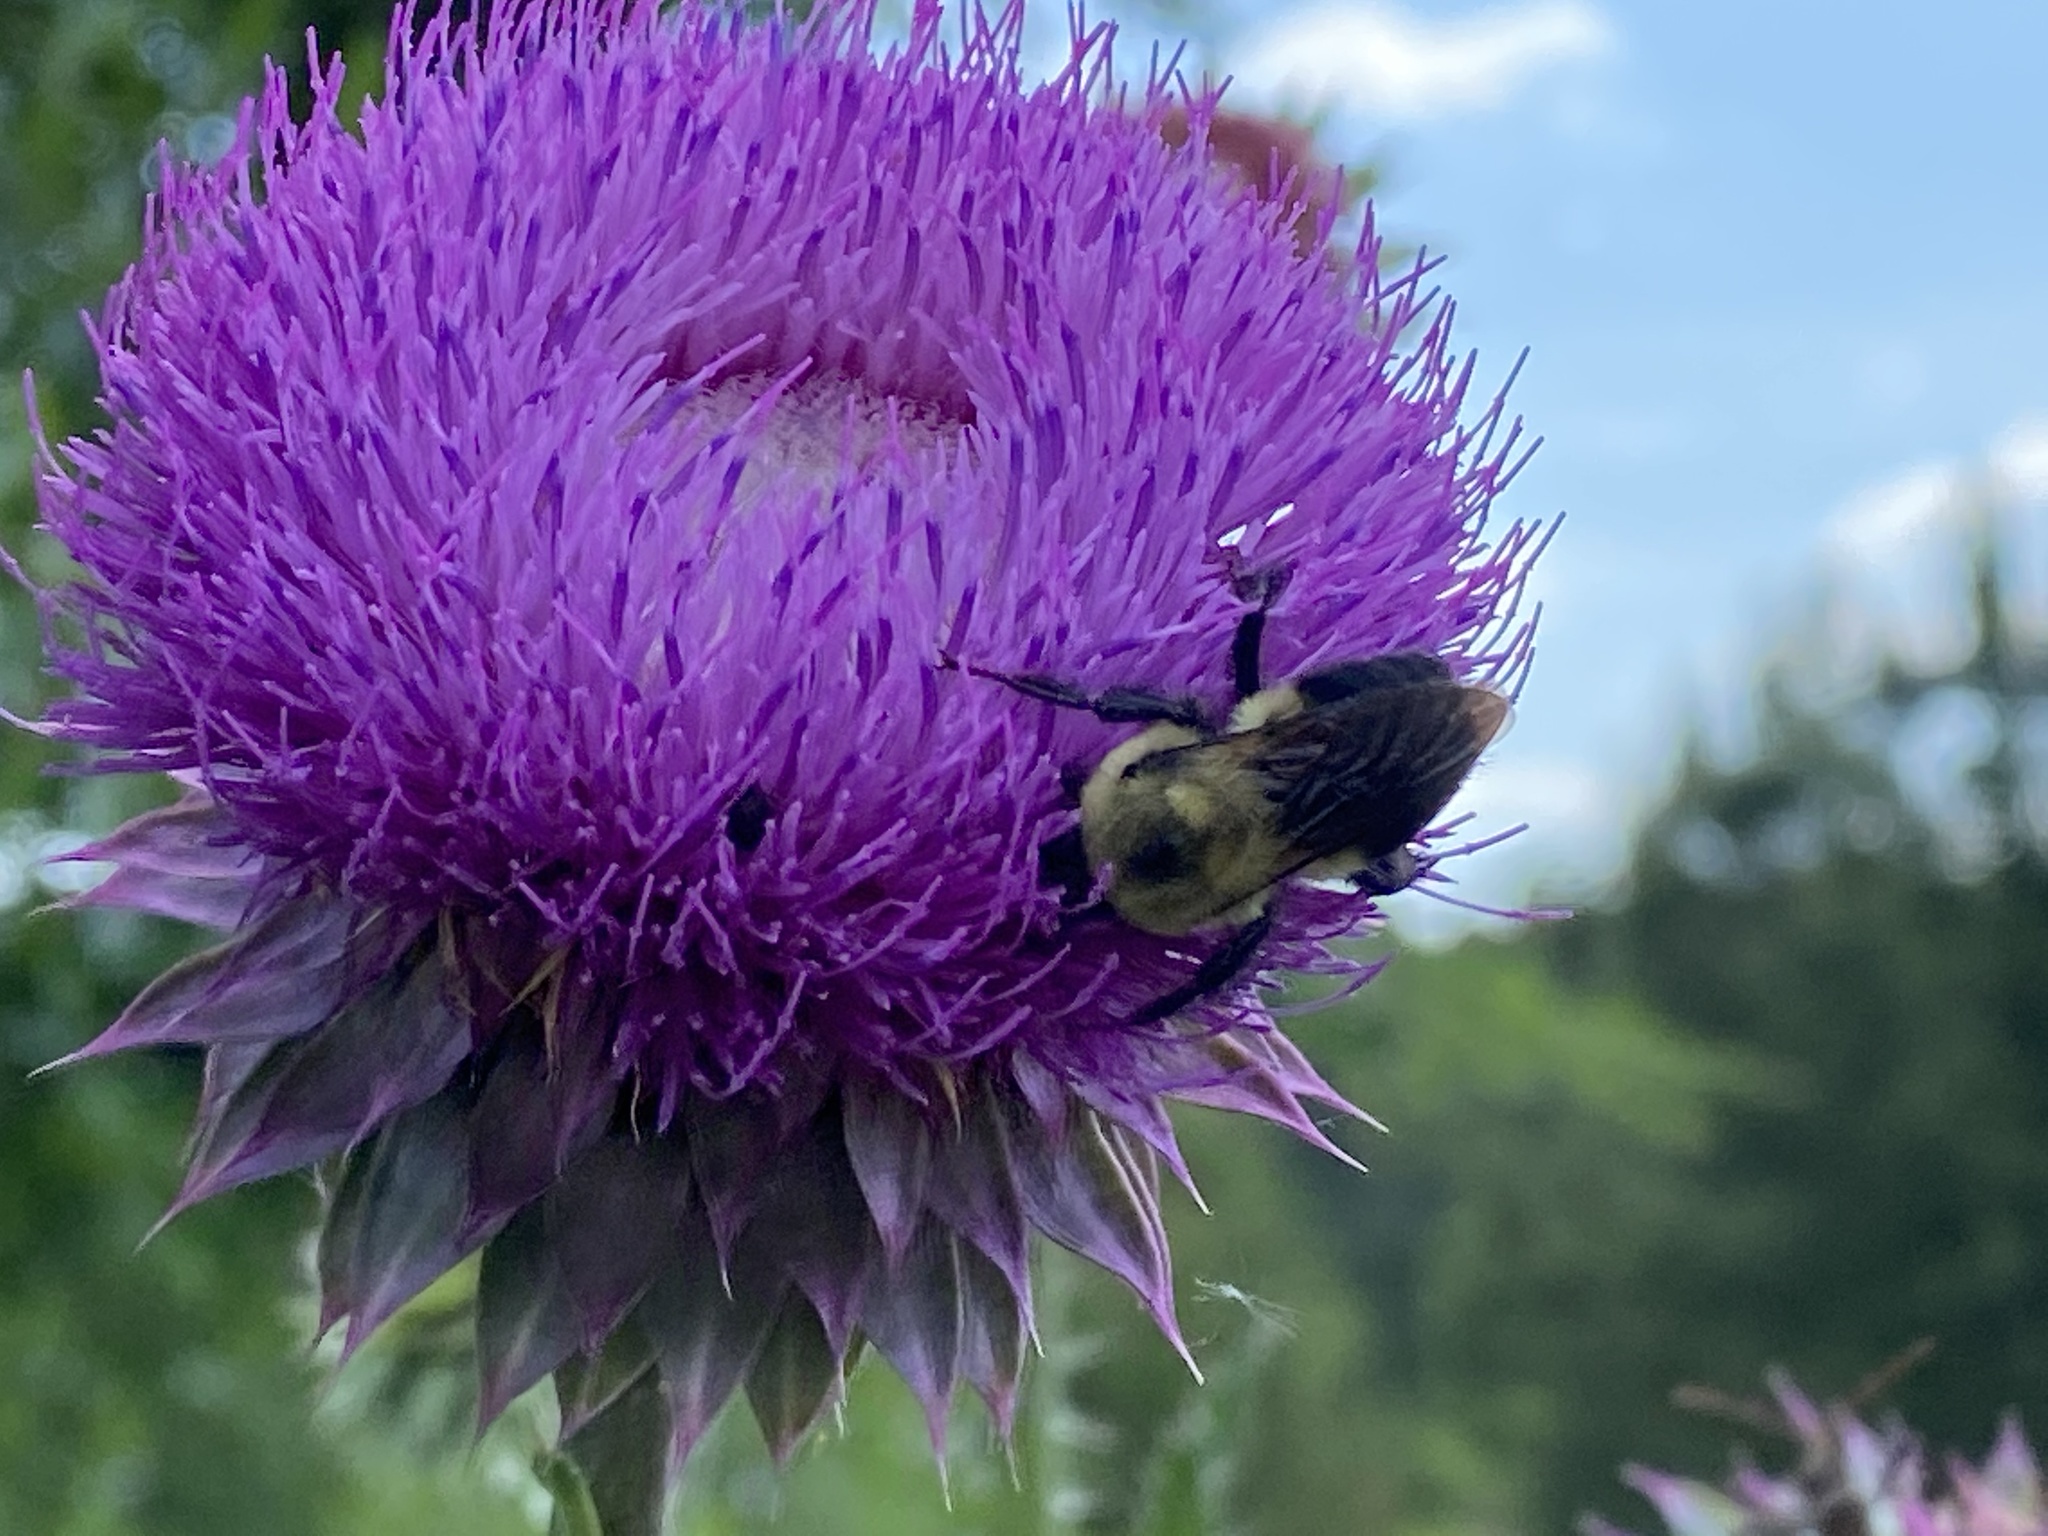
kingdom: Animalia
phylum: Arthropoda
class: Insecta
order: Hymenoptera
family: Apidae
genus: Bombus
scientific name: Bombus griseocollis
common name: Brown-belted bumble bee
